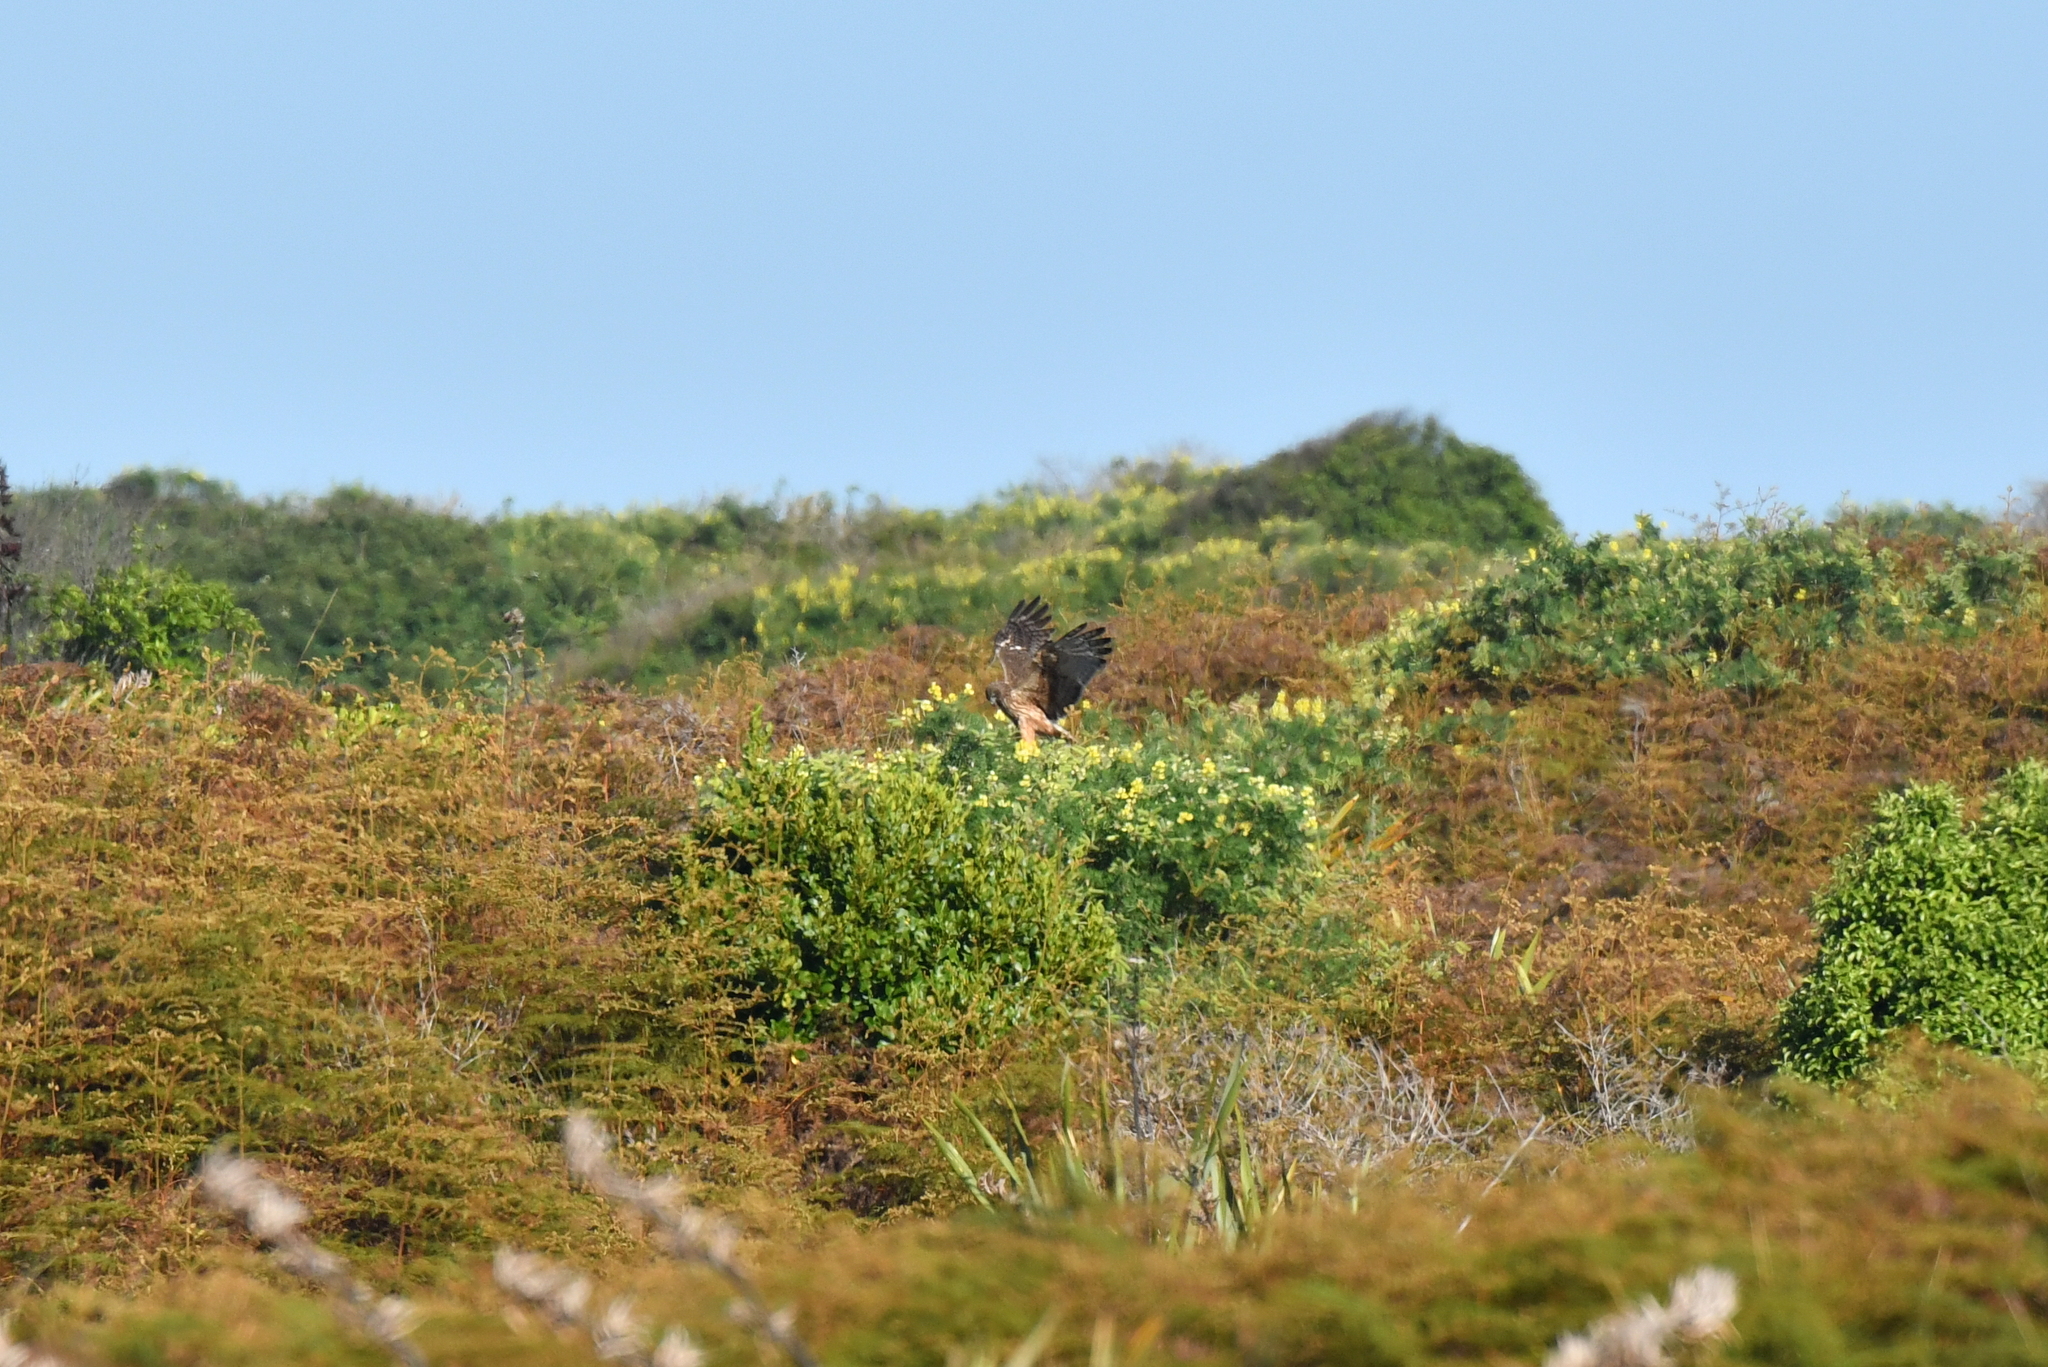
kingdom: Animalia
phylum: Chordata
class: Aves
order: Accipitriformes
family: Accipitridae
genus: Circus
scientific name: Circus approximans
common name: Swamp harrier
